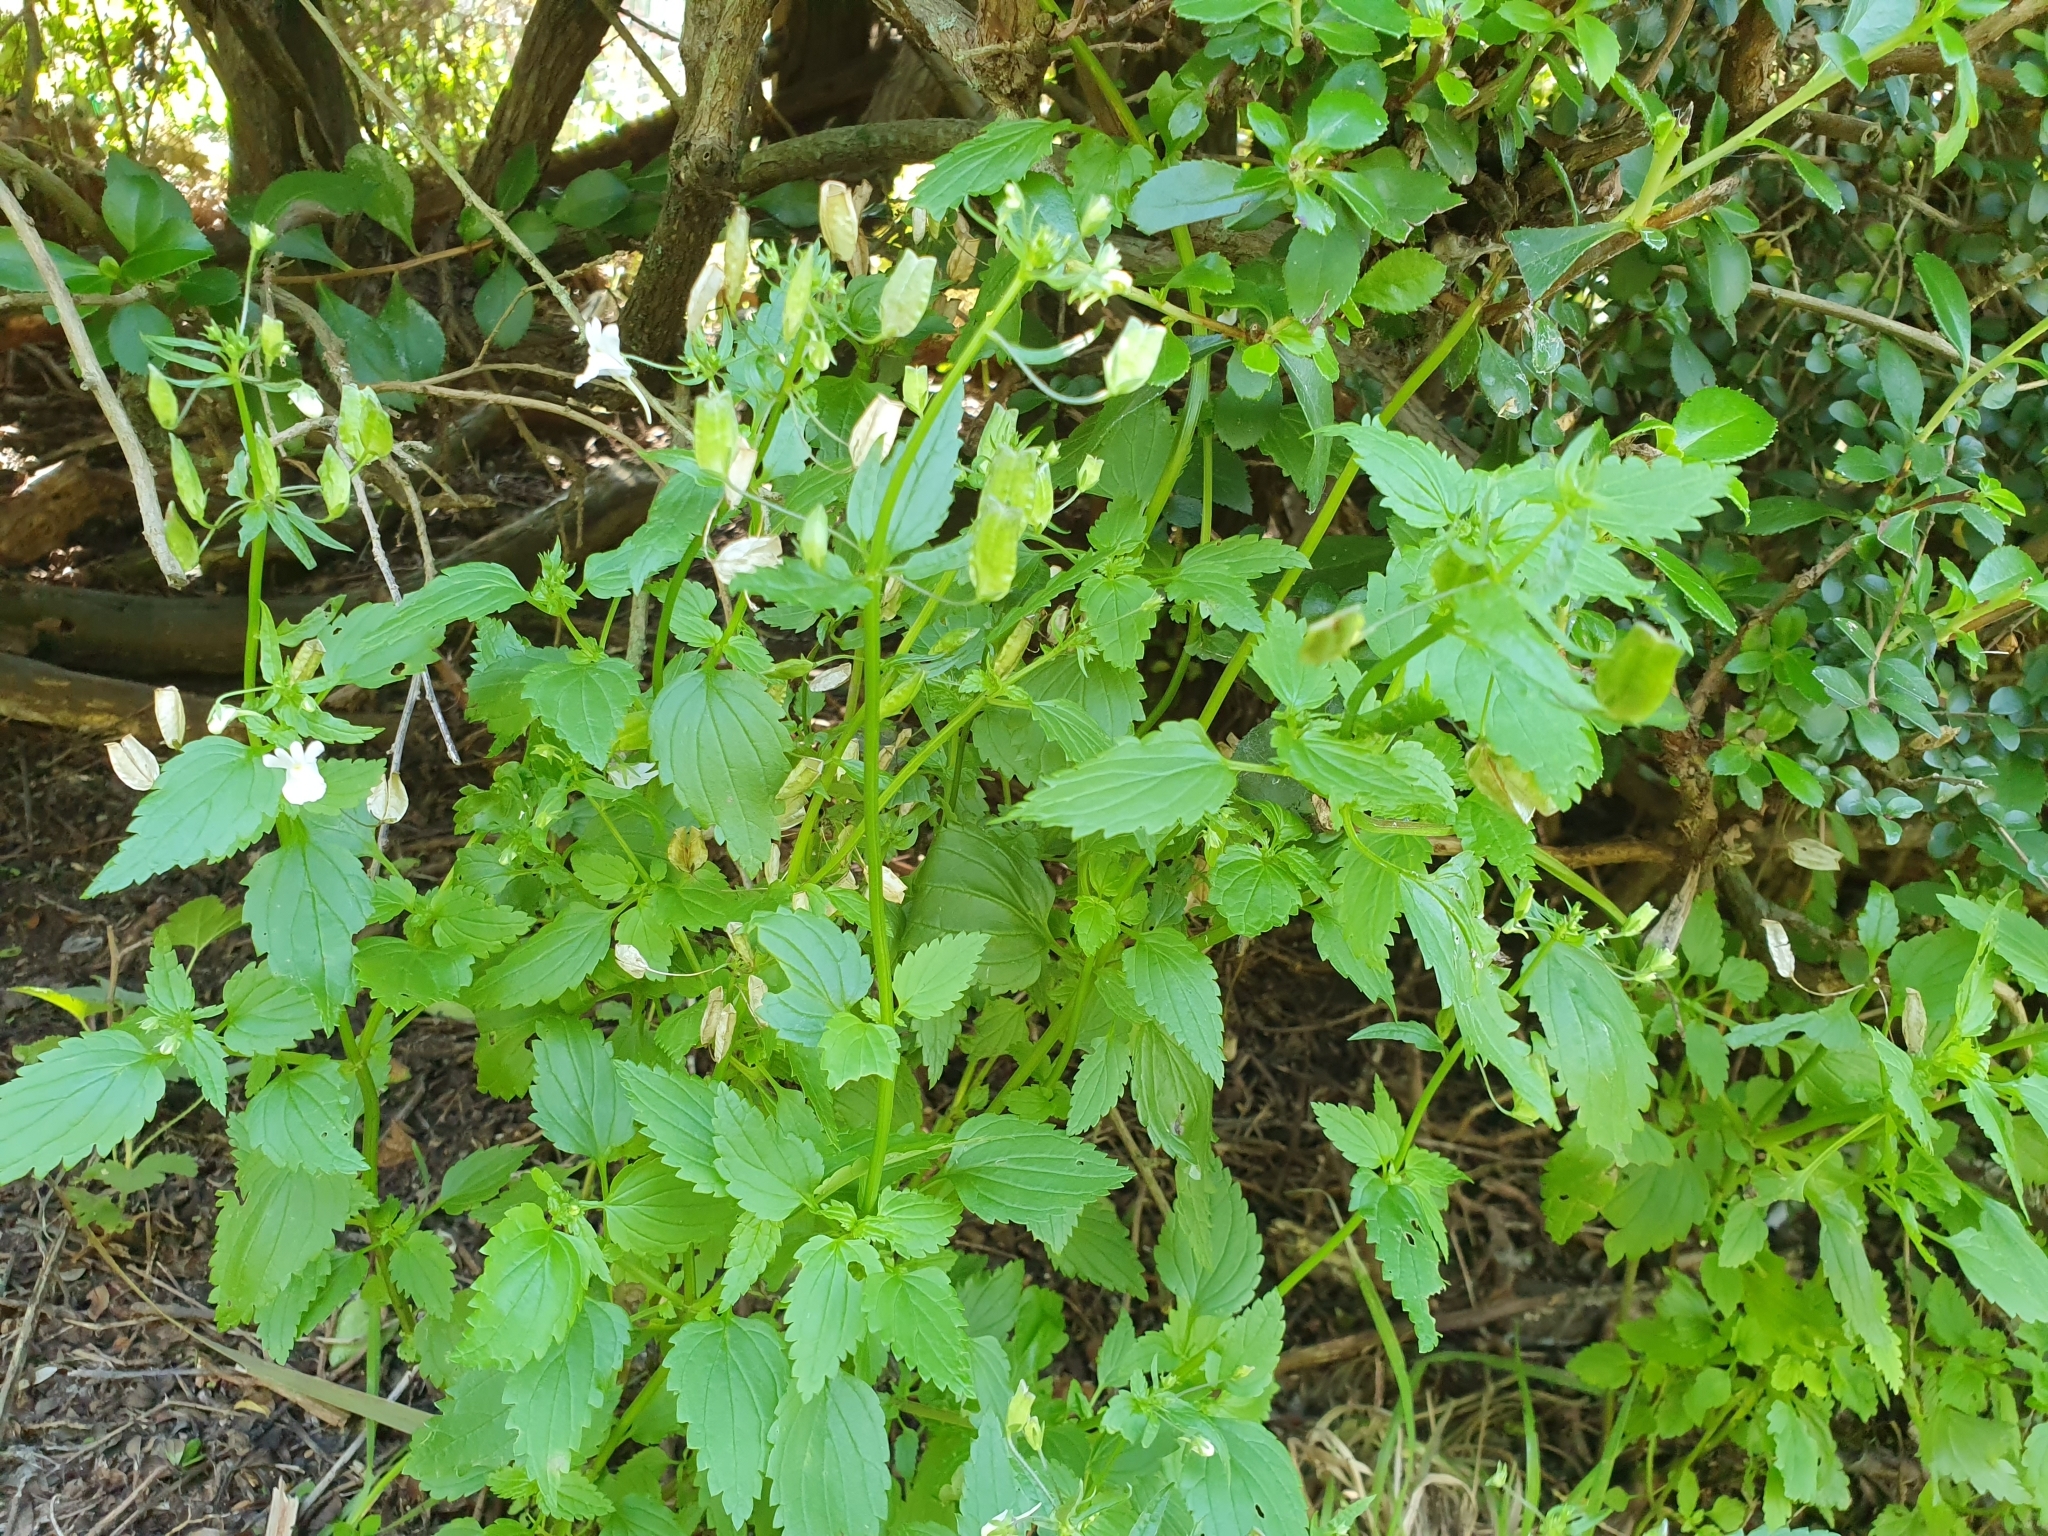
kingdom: Plantae
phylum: Tracheophyta
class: Magnoliopsida
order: Lamiales
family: Scrophulariaceae
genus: Nemesia
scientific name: Nemesia floribunda
